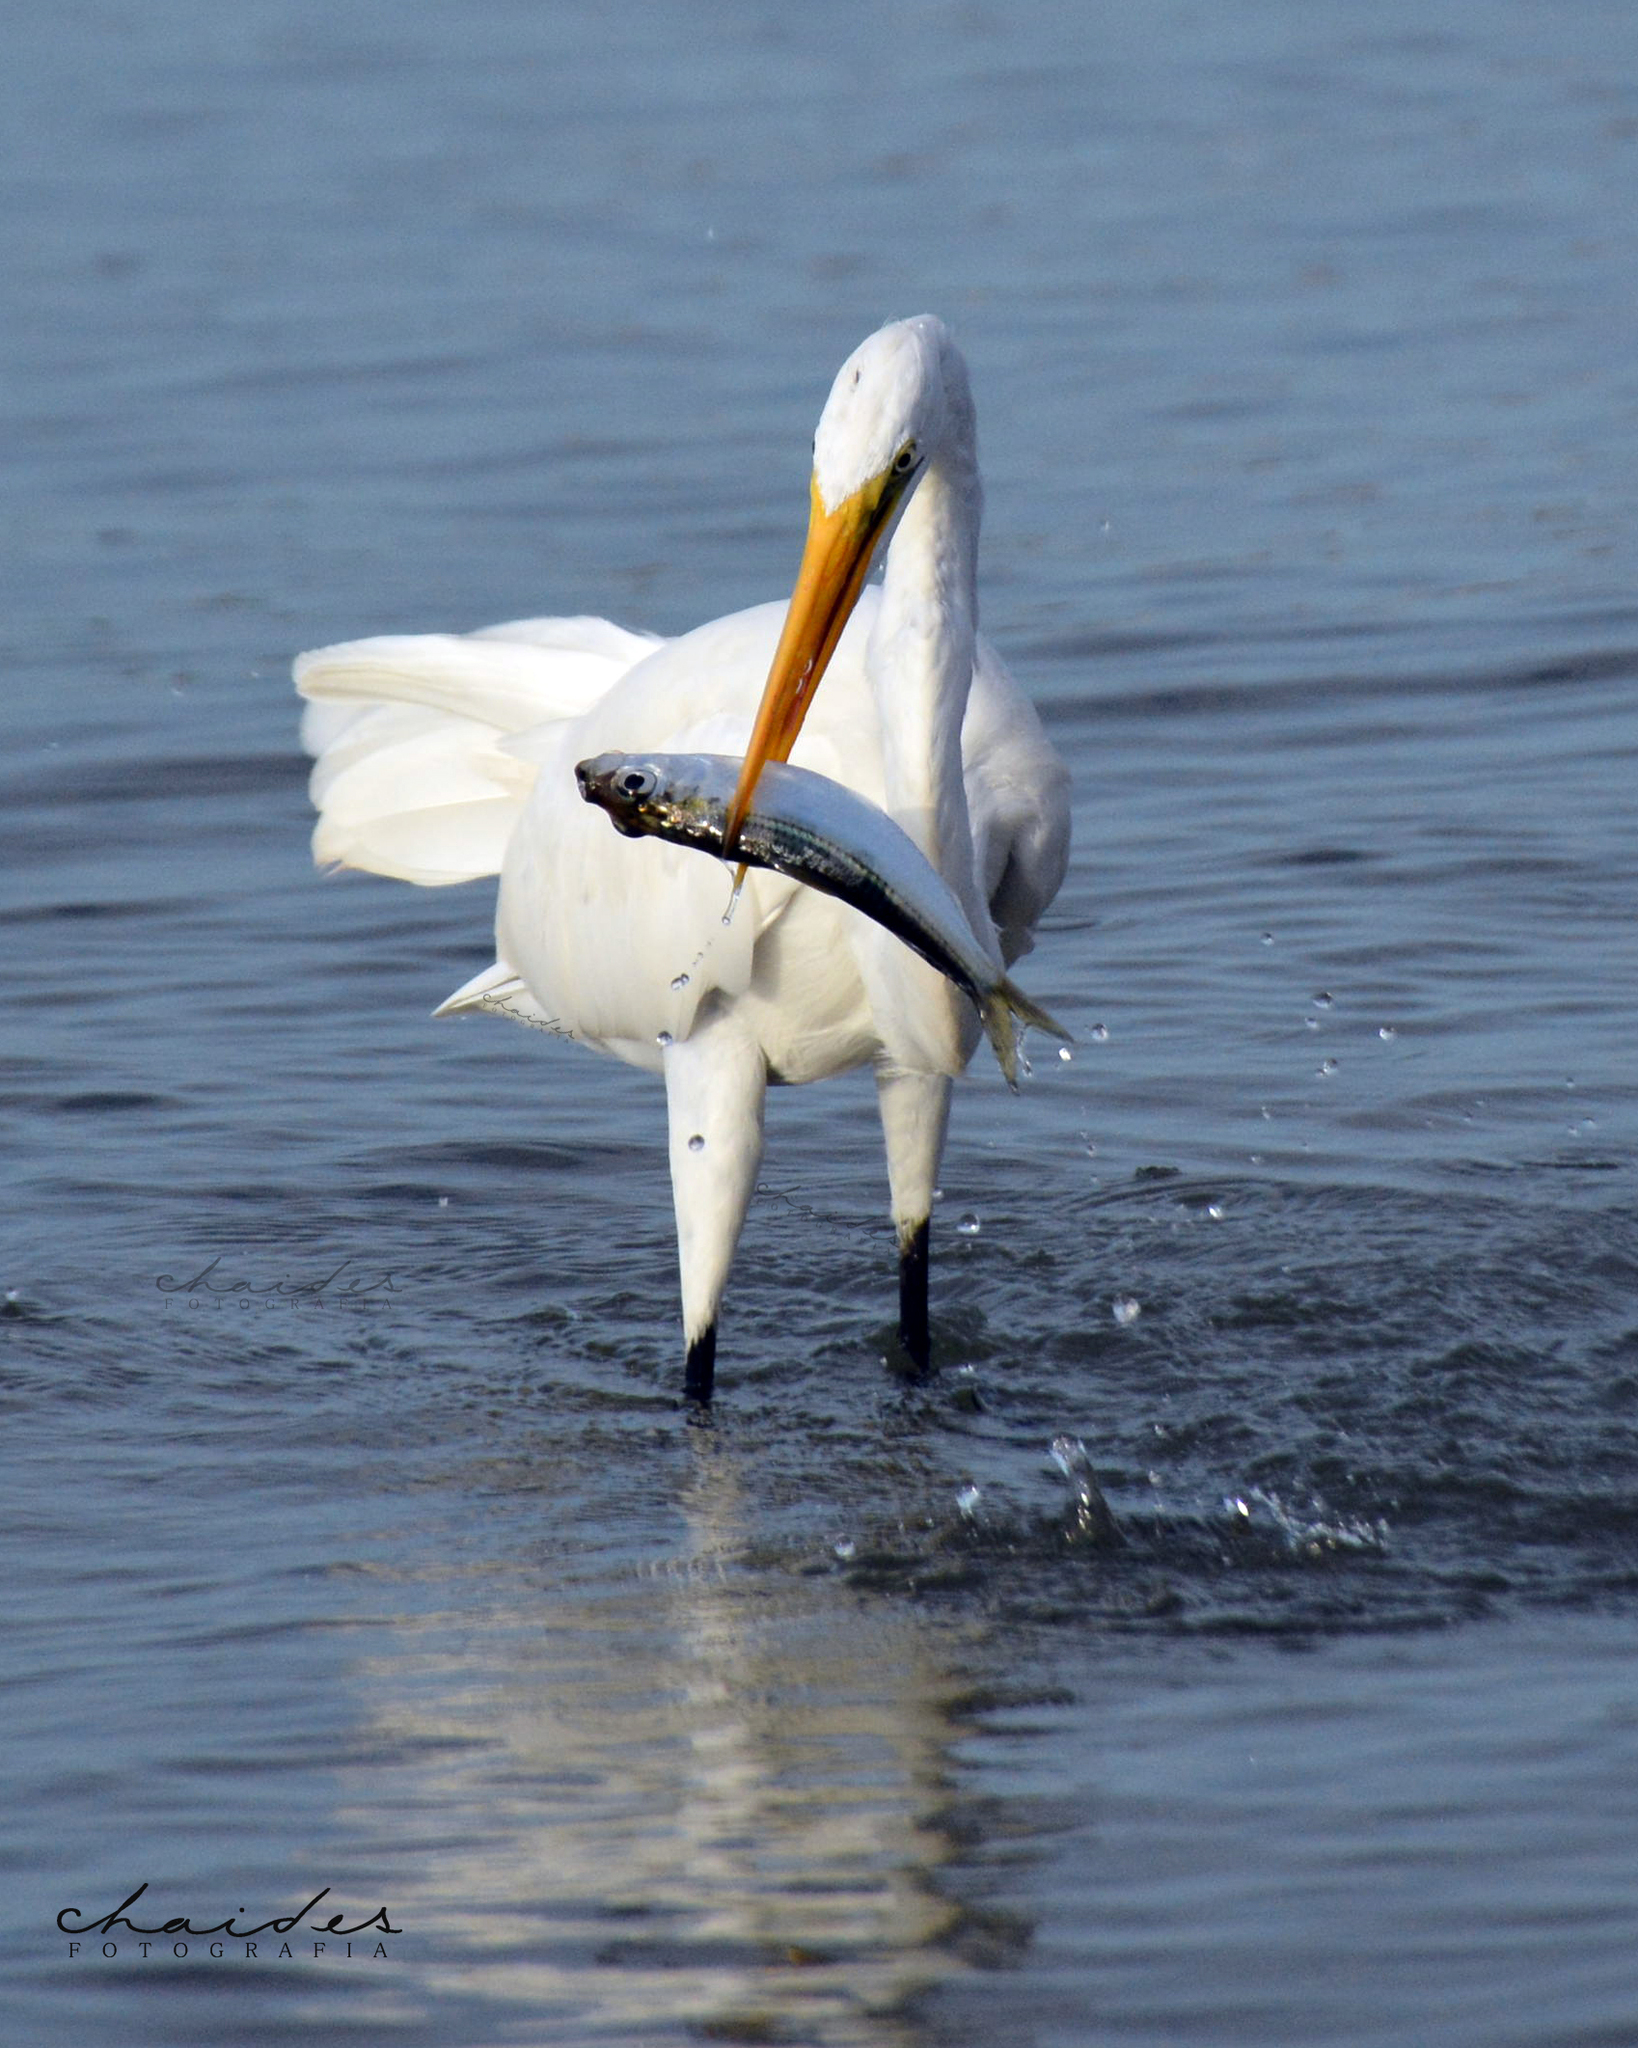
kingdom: Animalia
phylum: Chordata
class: Aves
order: Pelecaniformes
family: Ardeidae
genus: Ardea
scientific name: Ardea alba
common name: Great egret
